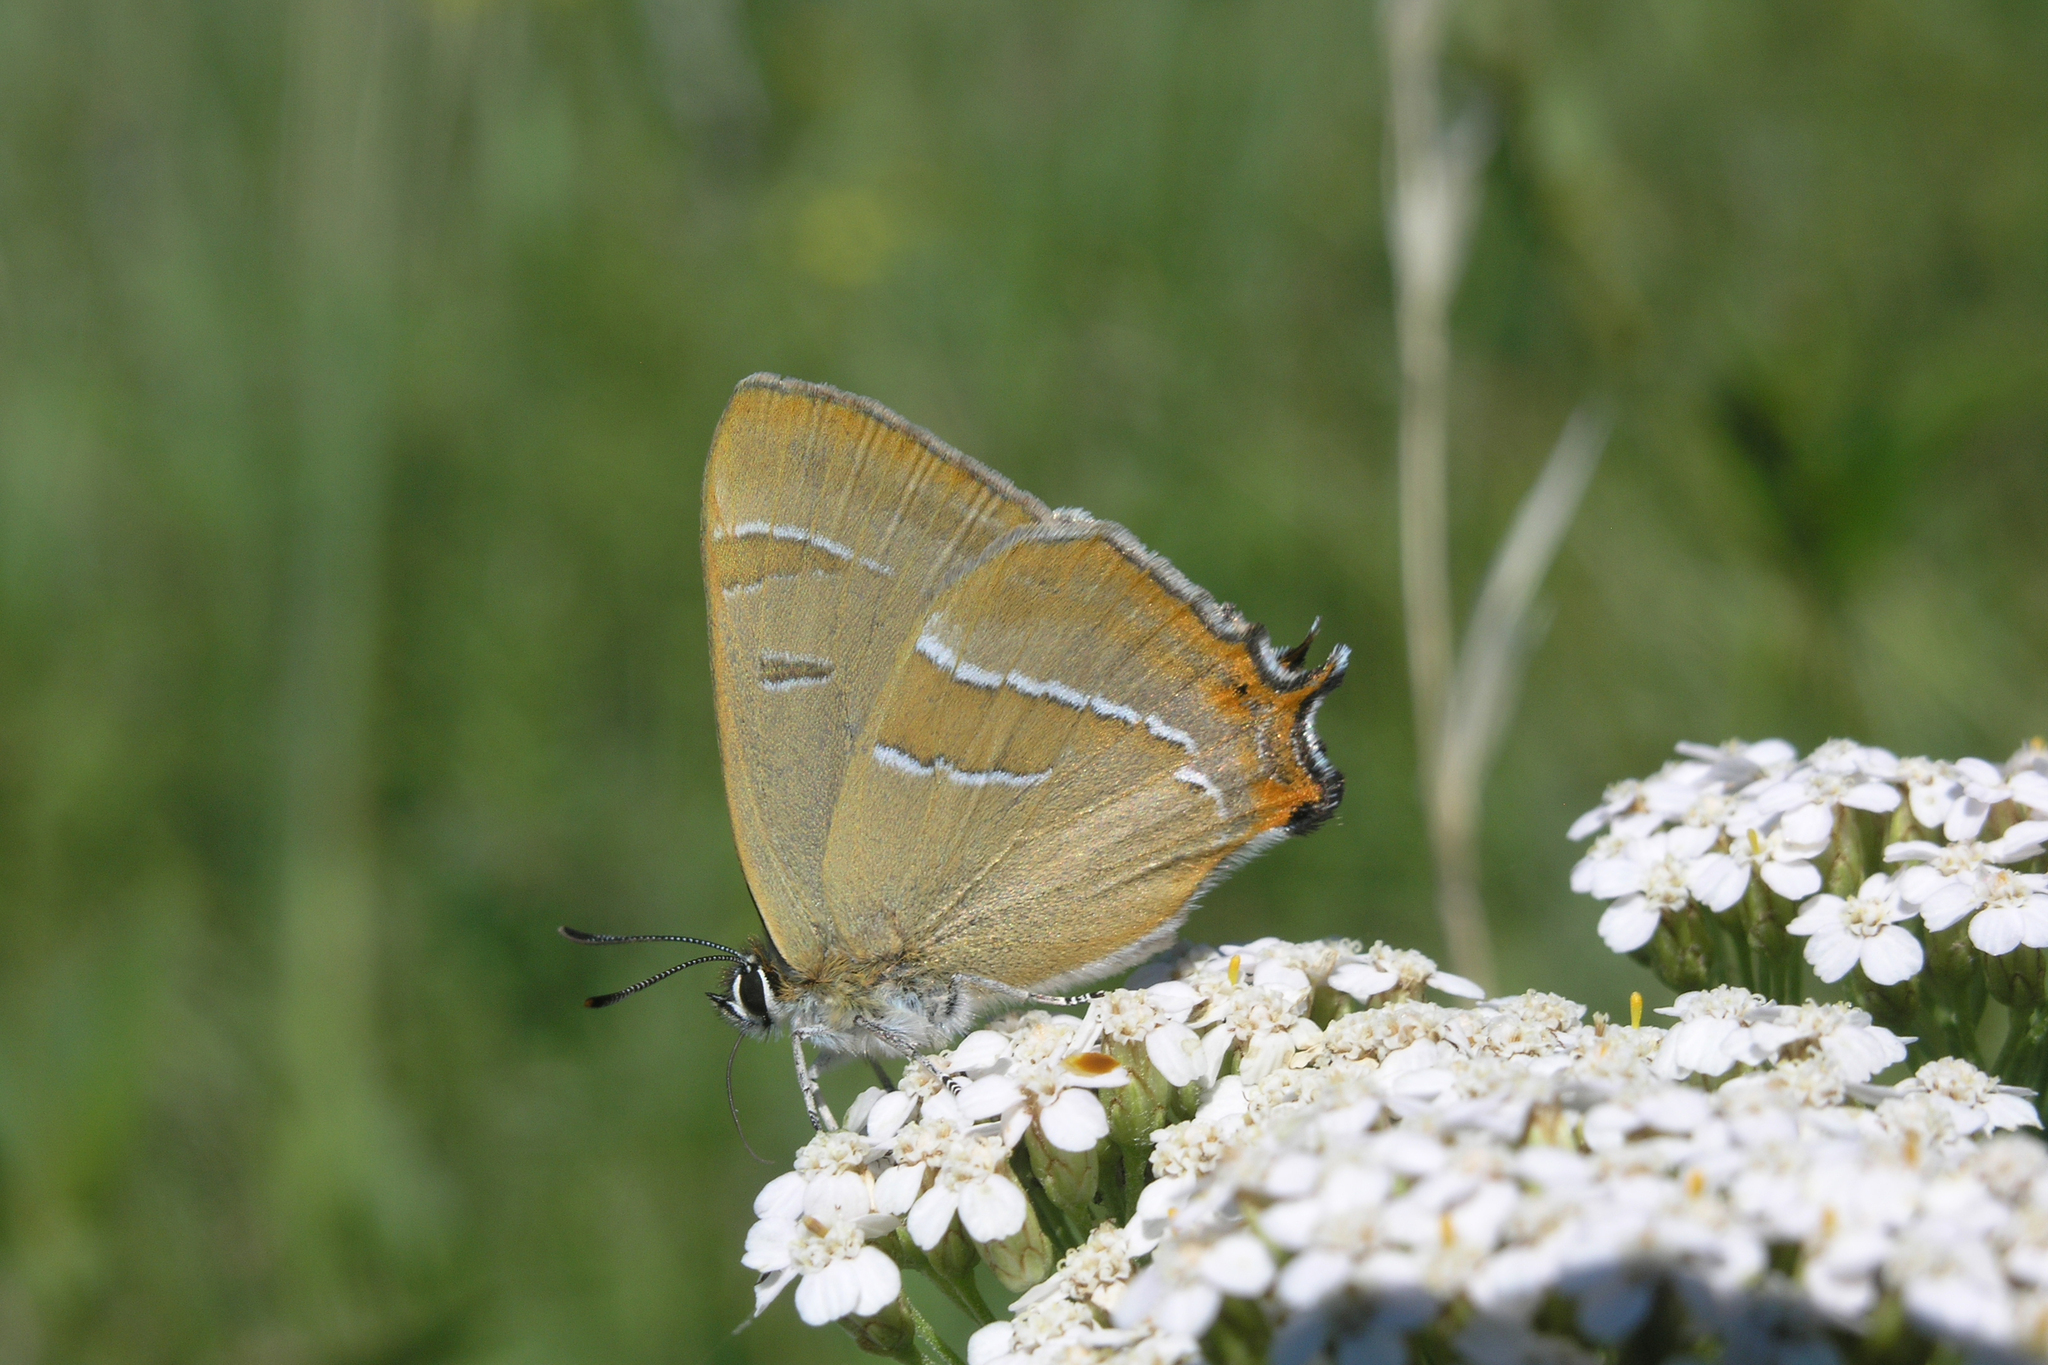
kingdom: Animalia
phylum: Arthropoda
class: Insecta
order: Lepidoptera
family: Lycaenidae
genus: Thecla
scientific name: Thecla betulae
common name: Brown hairstreak
